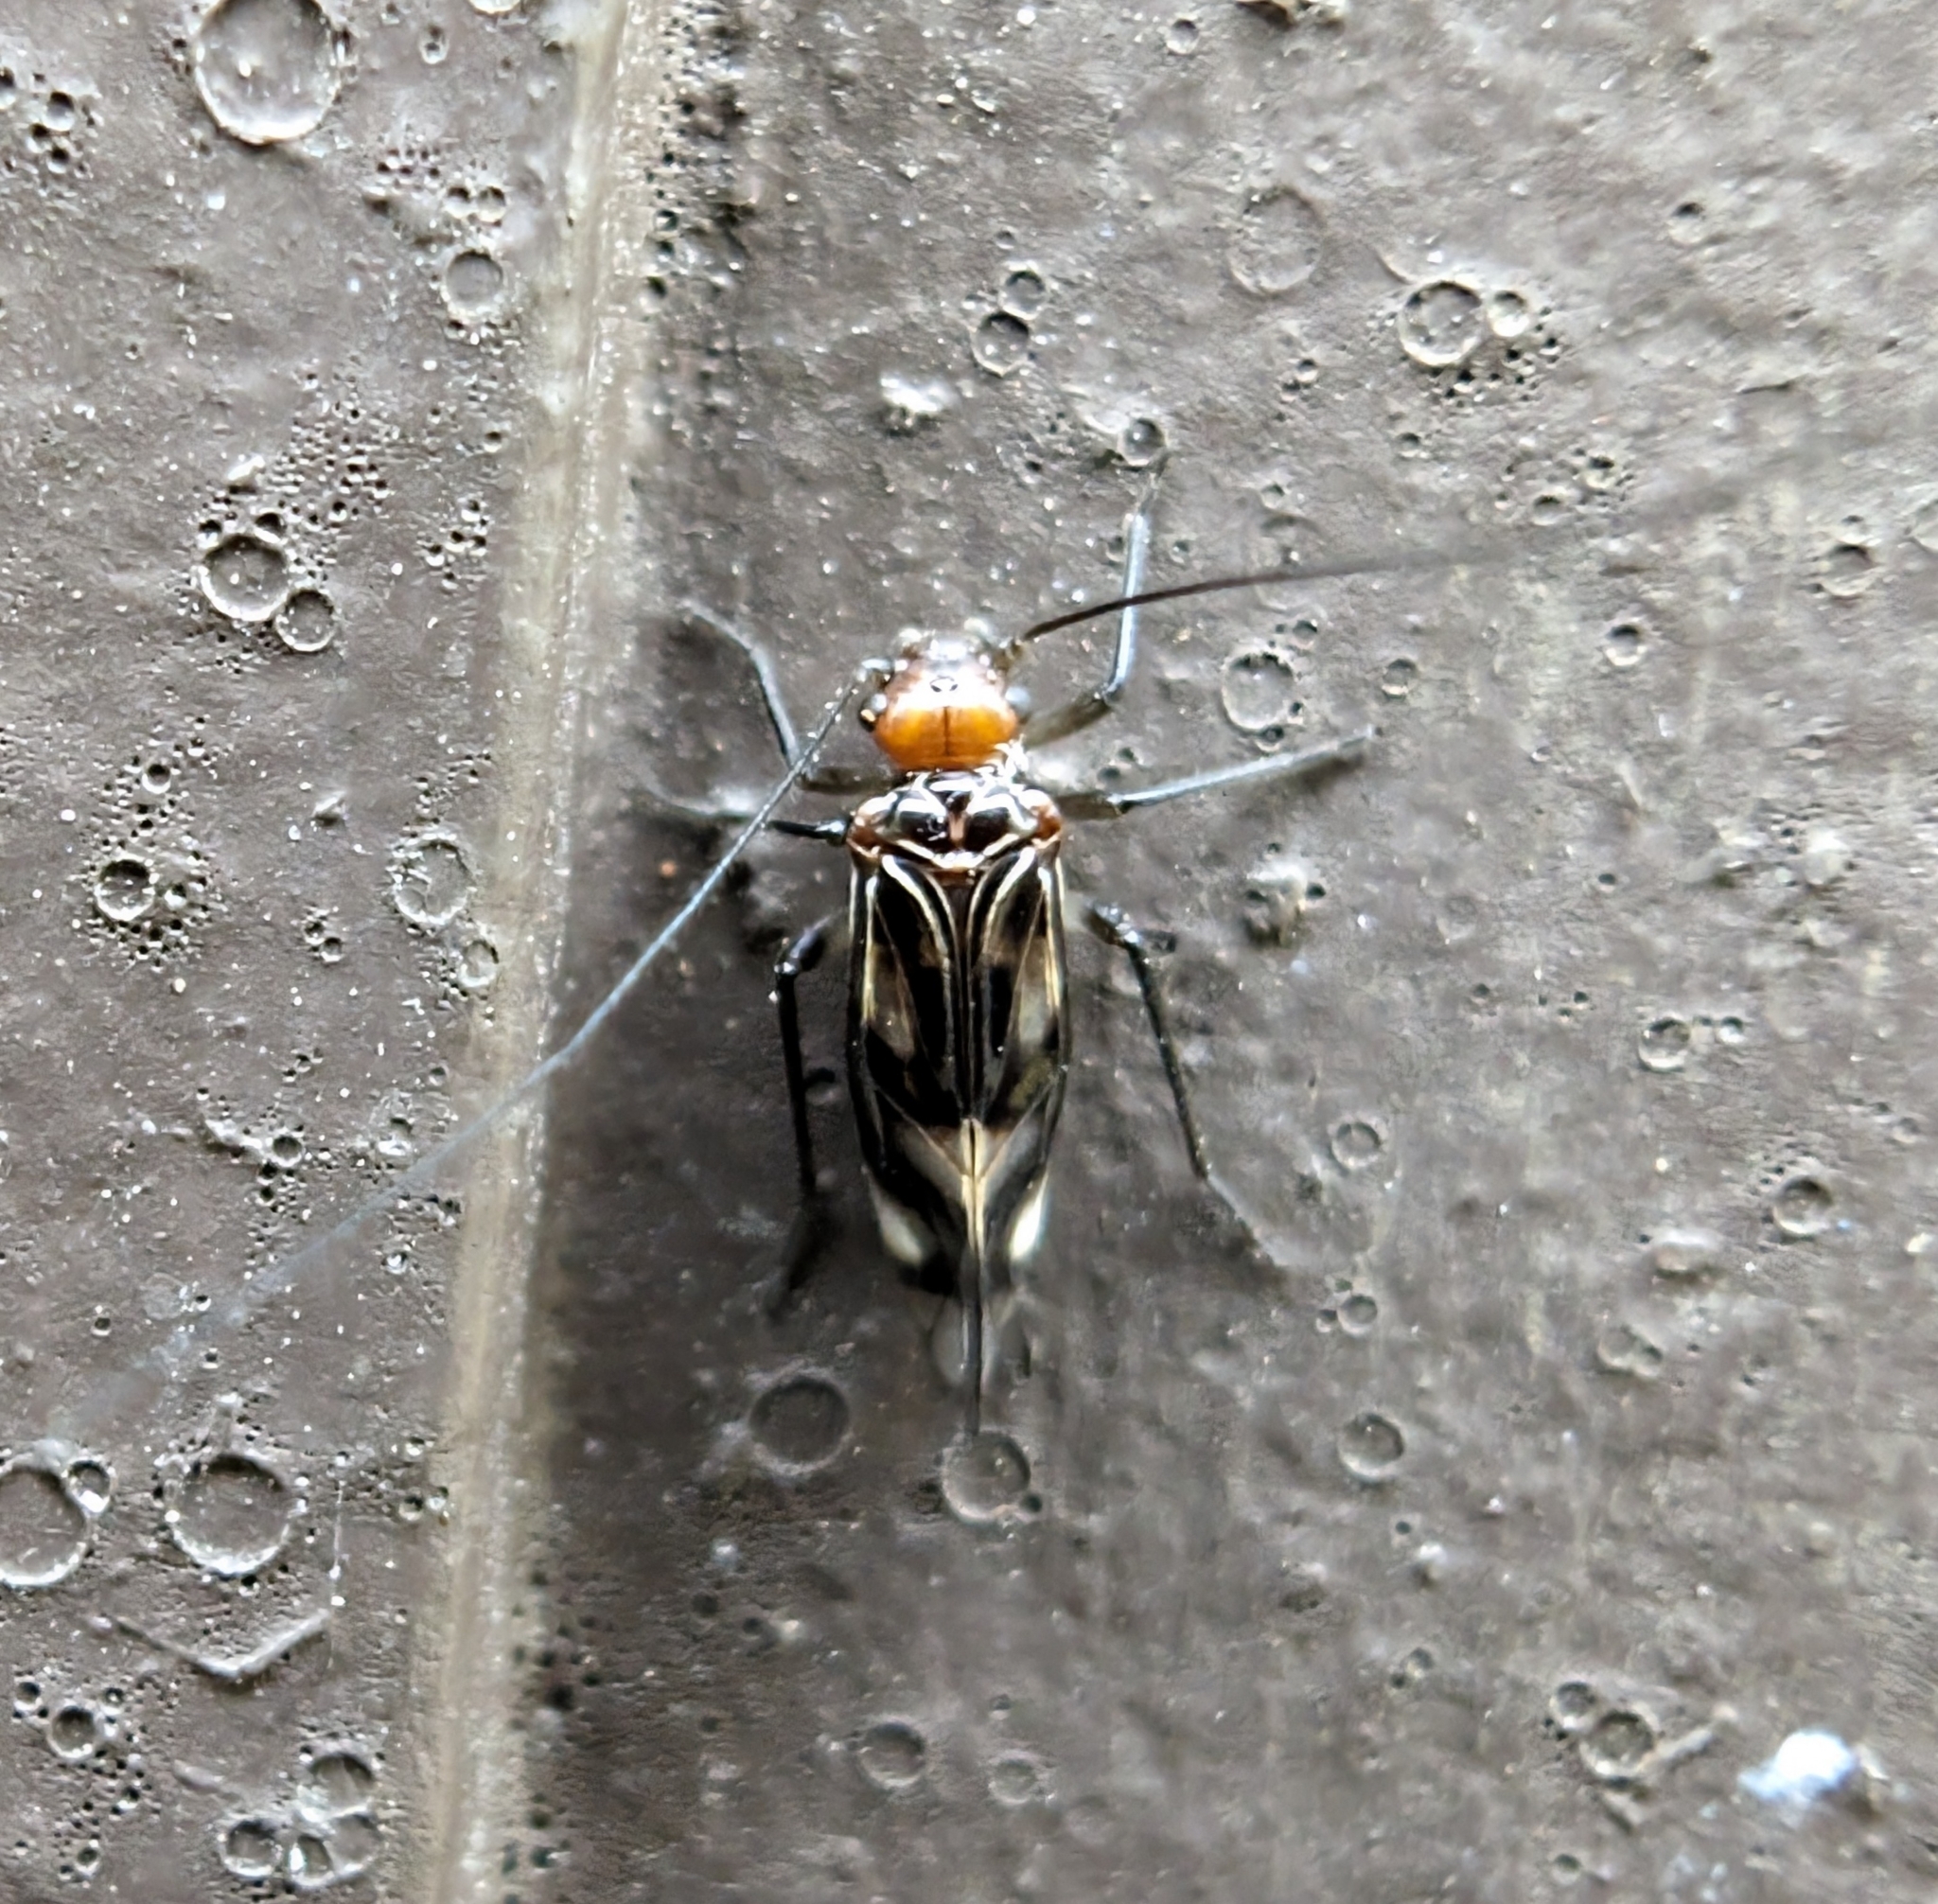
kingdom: Animalia
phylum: Arthropoda
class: Insecta
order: Psocodea
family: Psocidae
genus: Cerastipsocus
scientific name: Cerastipsocus trifasciatus
